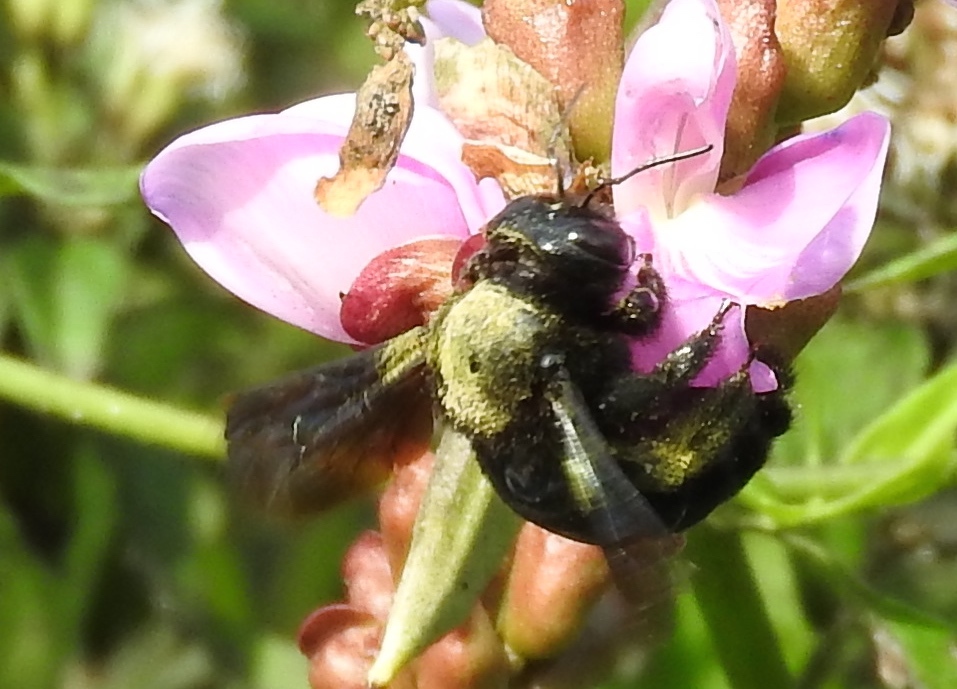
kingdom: Animalia
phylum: Arthropoda
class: Insecta
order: Hymenoptera
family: Apidae
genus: Xylocopa
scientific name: Xylocopa
